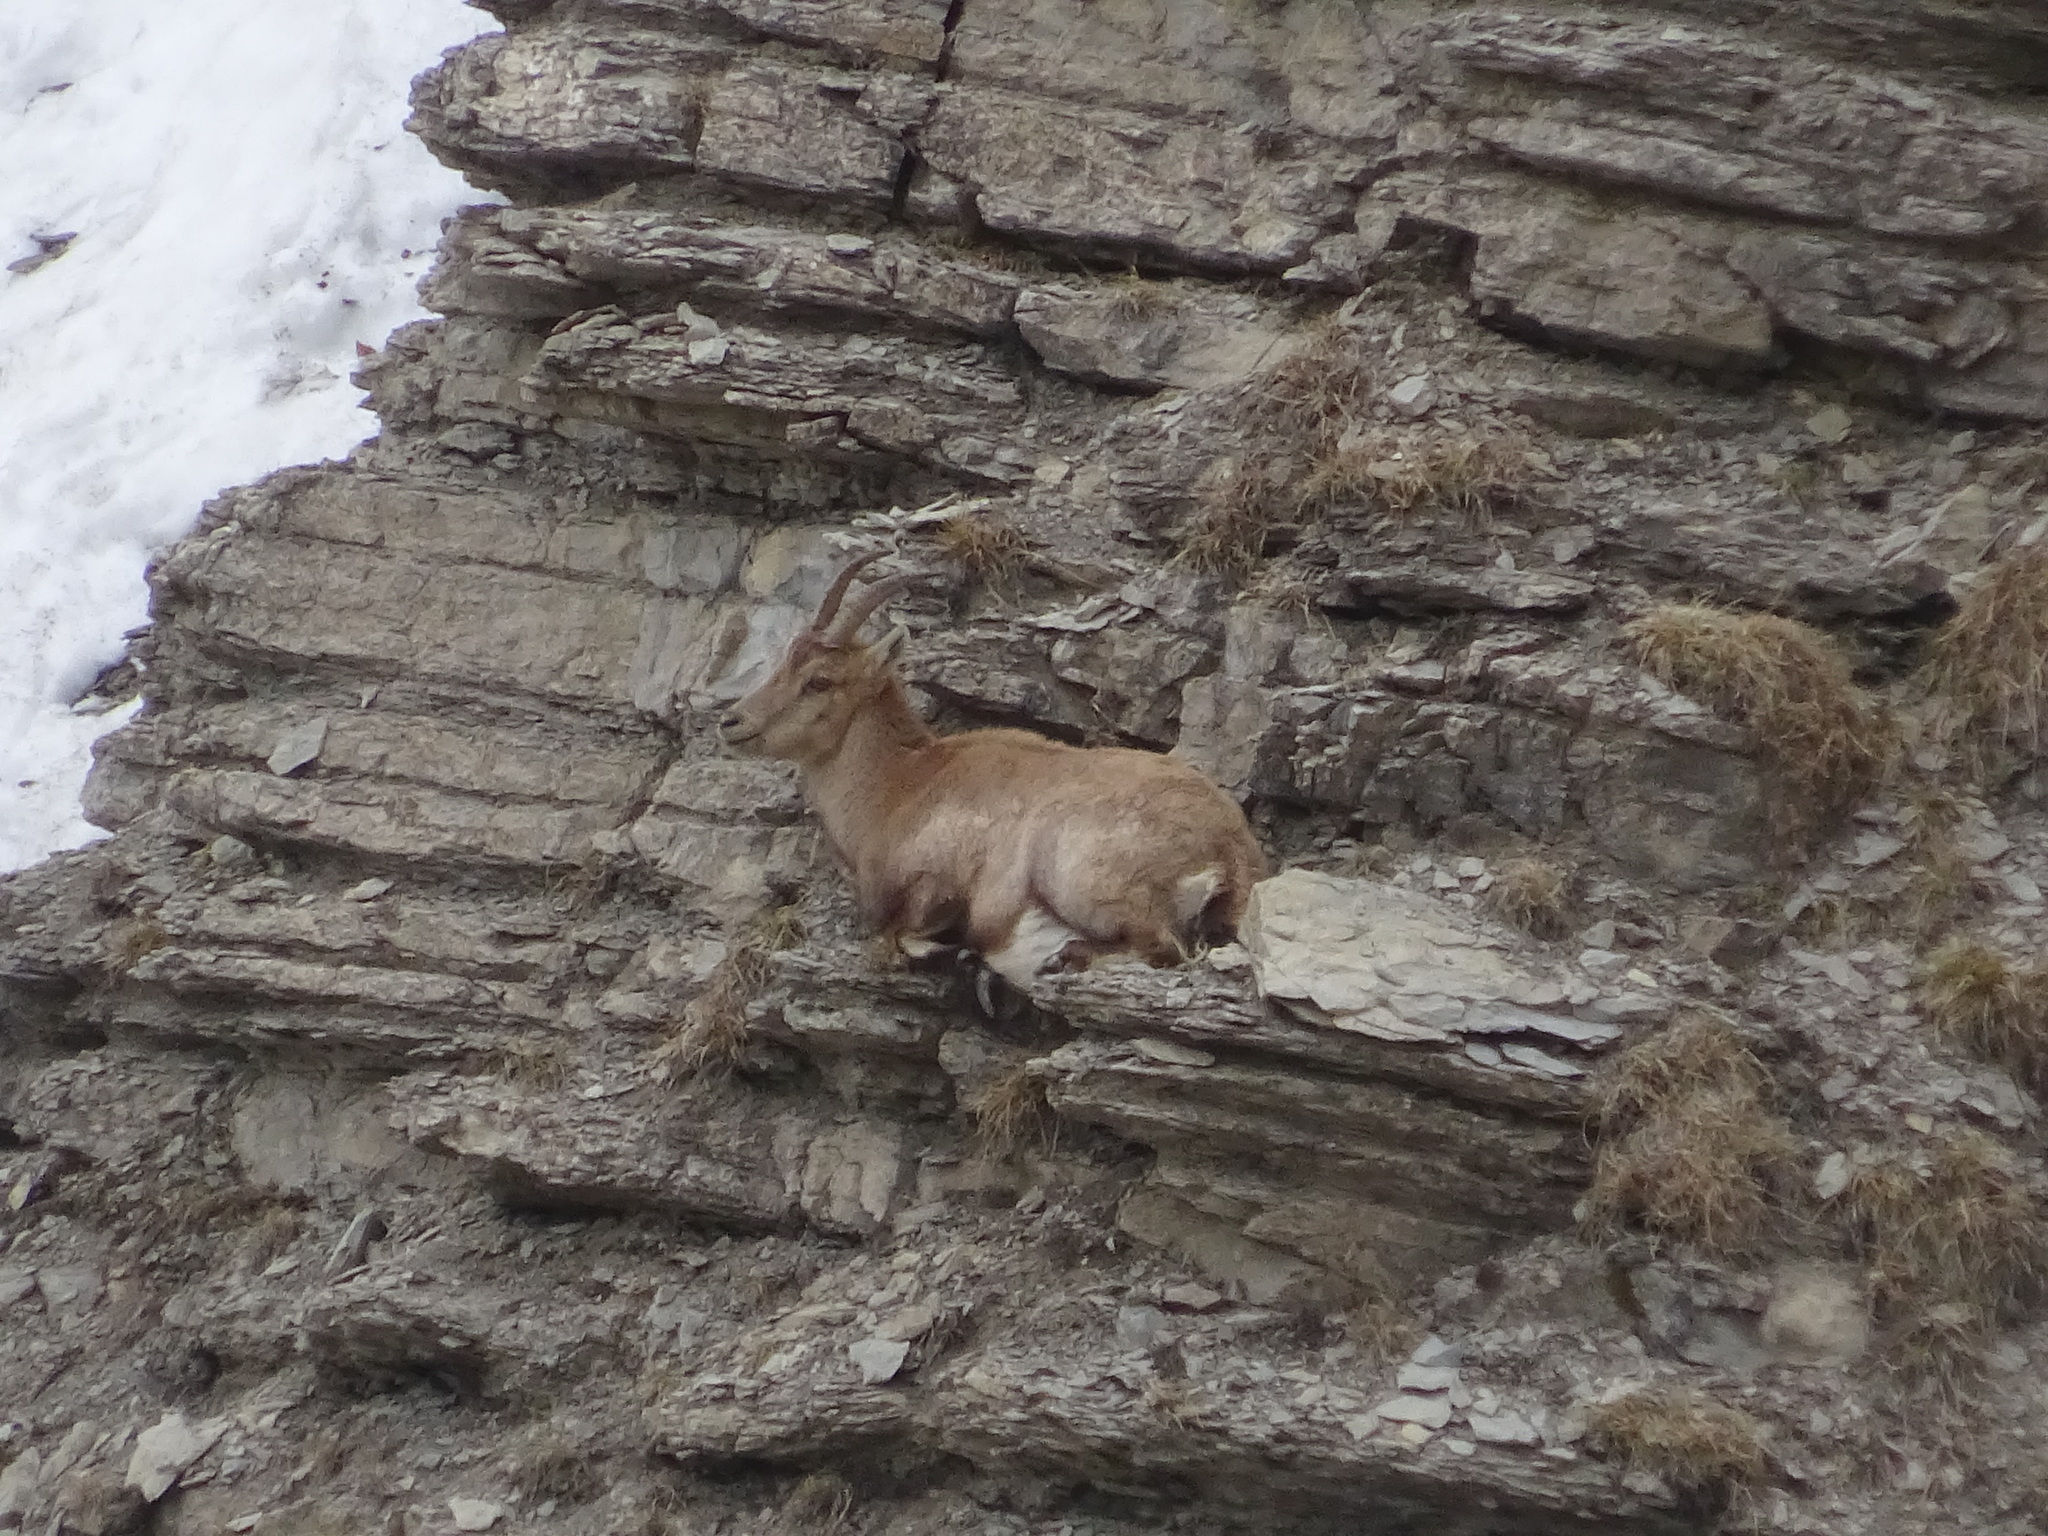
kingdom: Animalia
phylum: Chordata
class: Mammalia
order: Artiodactyla
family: Bovidae
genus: Capra
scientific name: Capra ibex
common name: Alpine ibex
